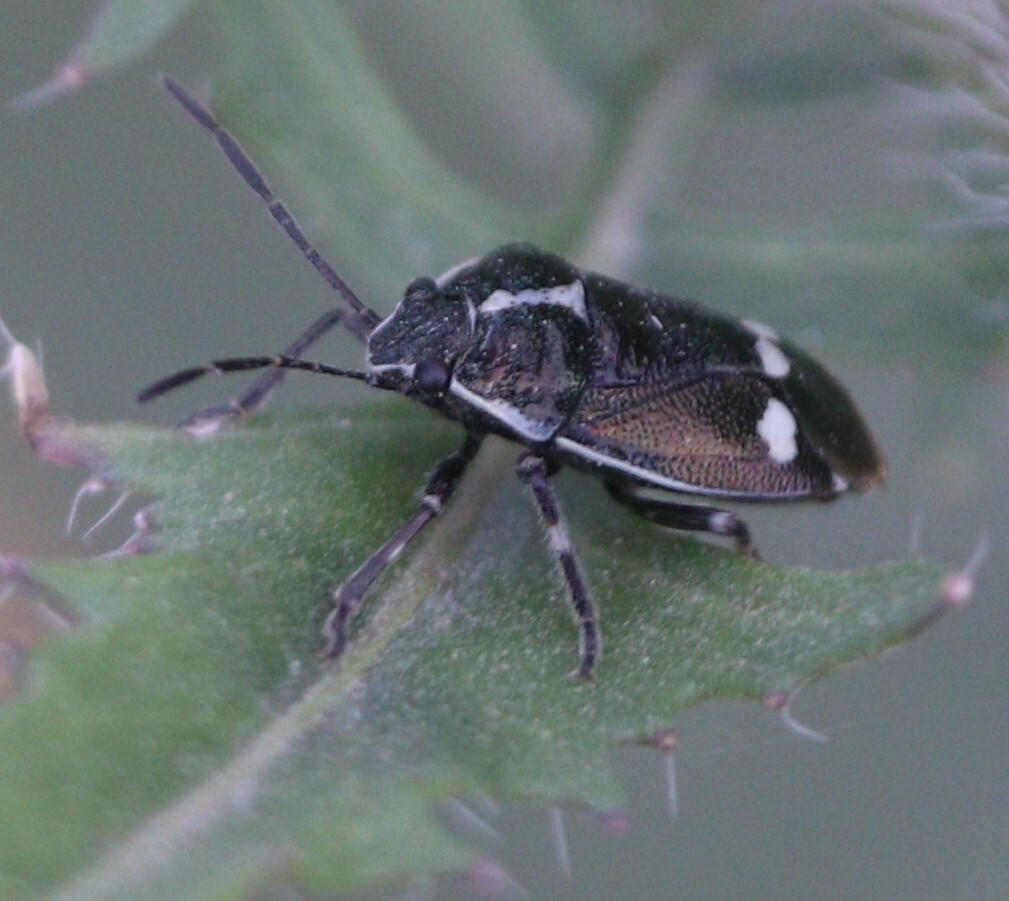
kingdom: Animalia
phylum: Arthropoda
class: Insecta
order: Hemiptera
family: Pentatomidae
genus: Eurydema
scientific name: Eurydema oleracea
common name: Cabbage bug
